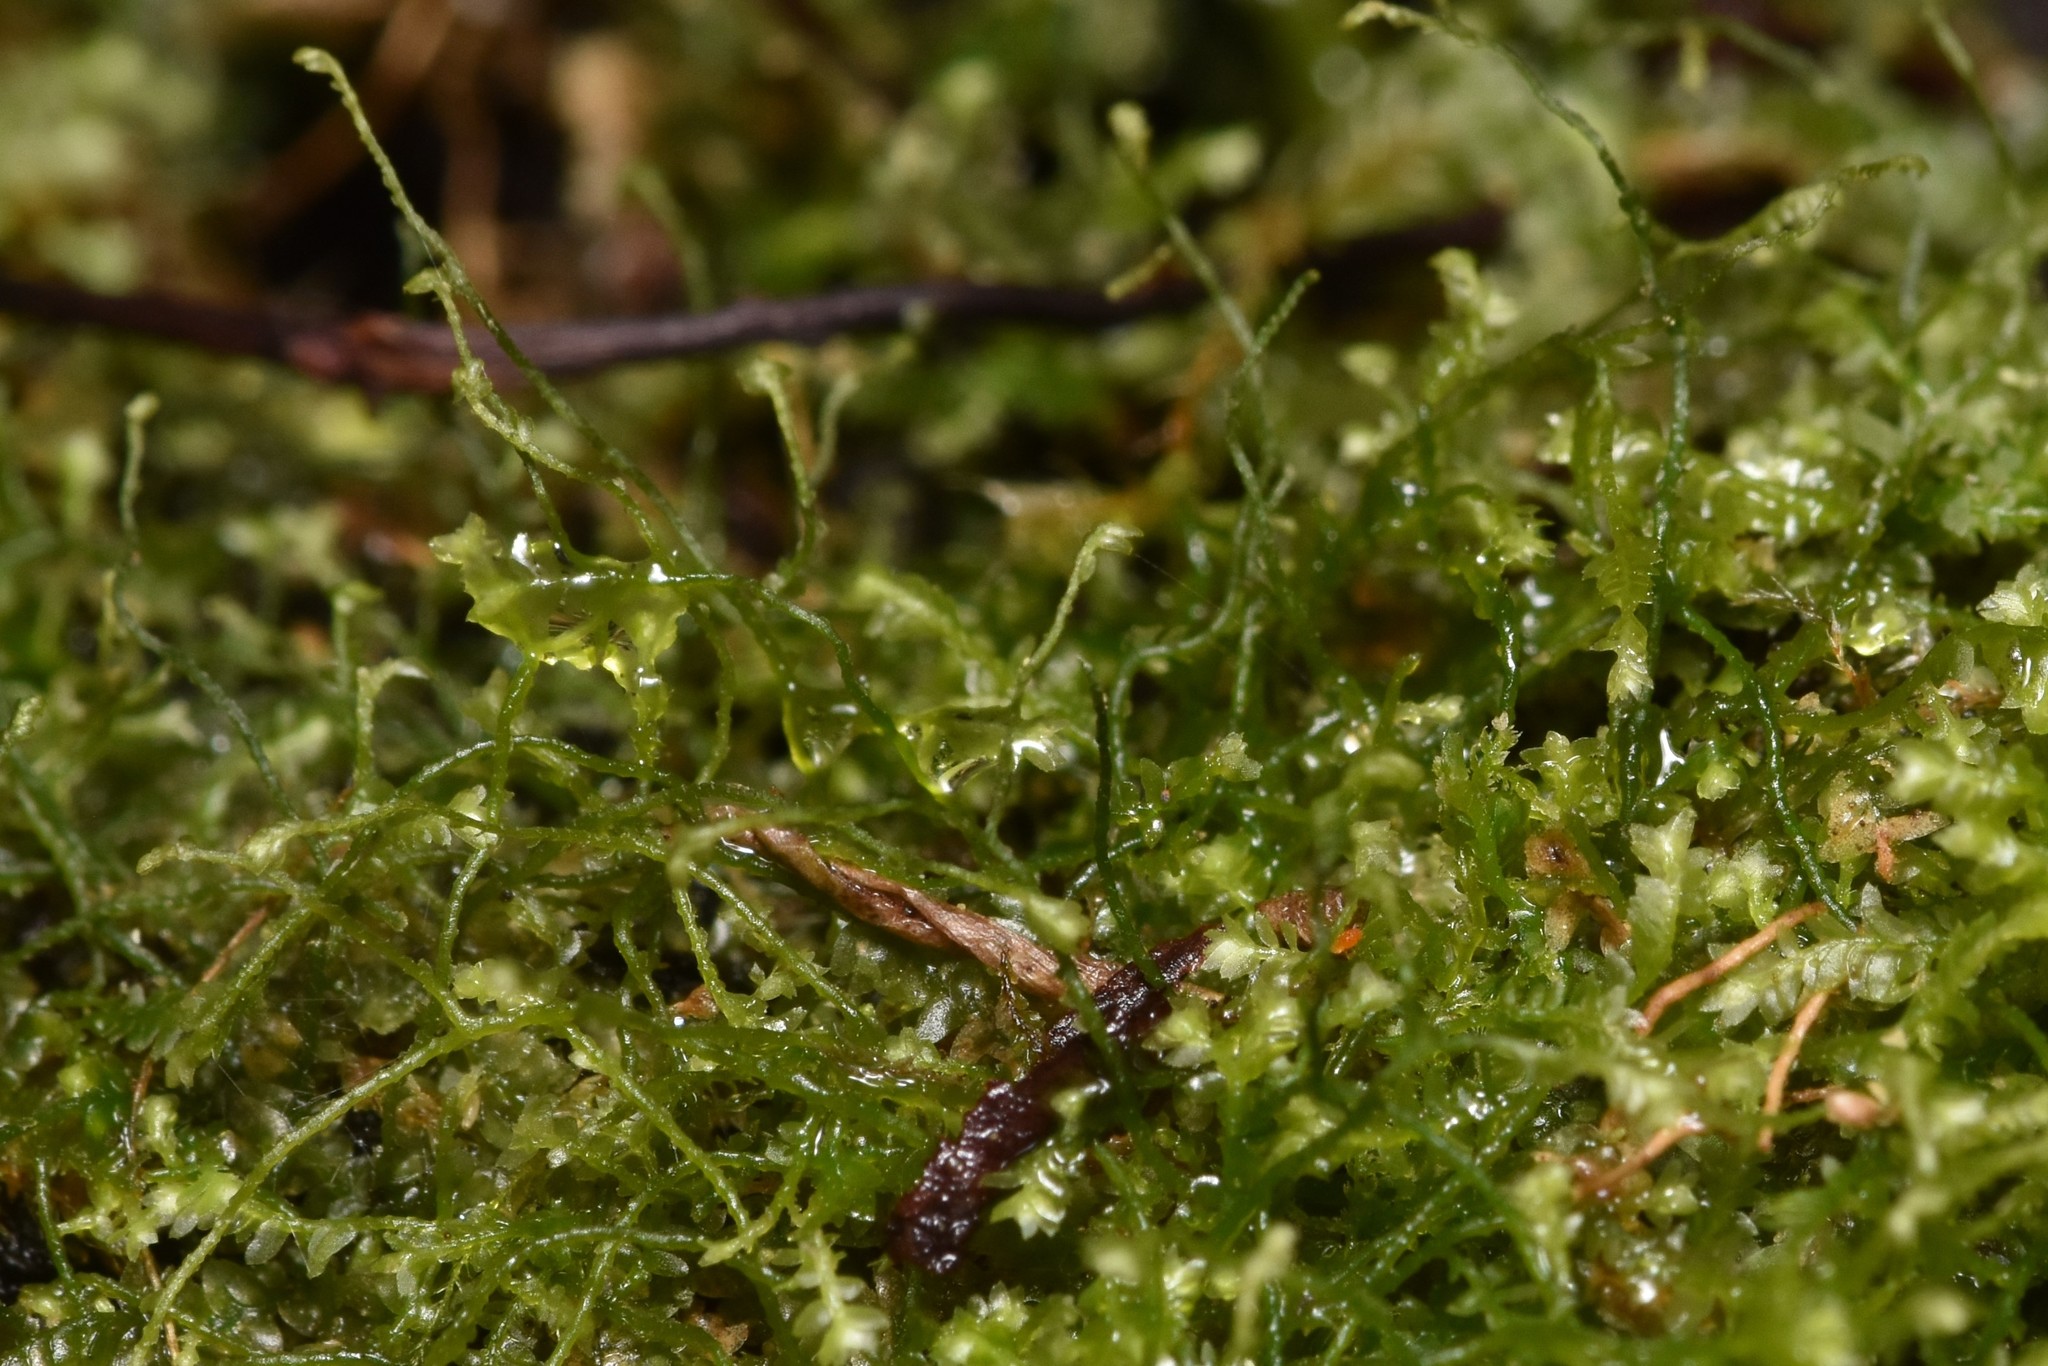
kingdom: Plantae
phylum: Marchantiophyta
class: Jungermanniopsida
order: Jungermanniales
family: Lepidoziaceae
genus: Bazzania
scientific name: Bazzania denudata
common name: Naked whipwort
